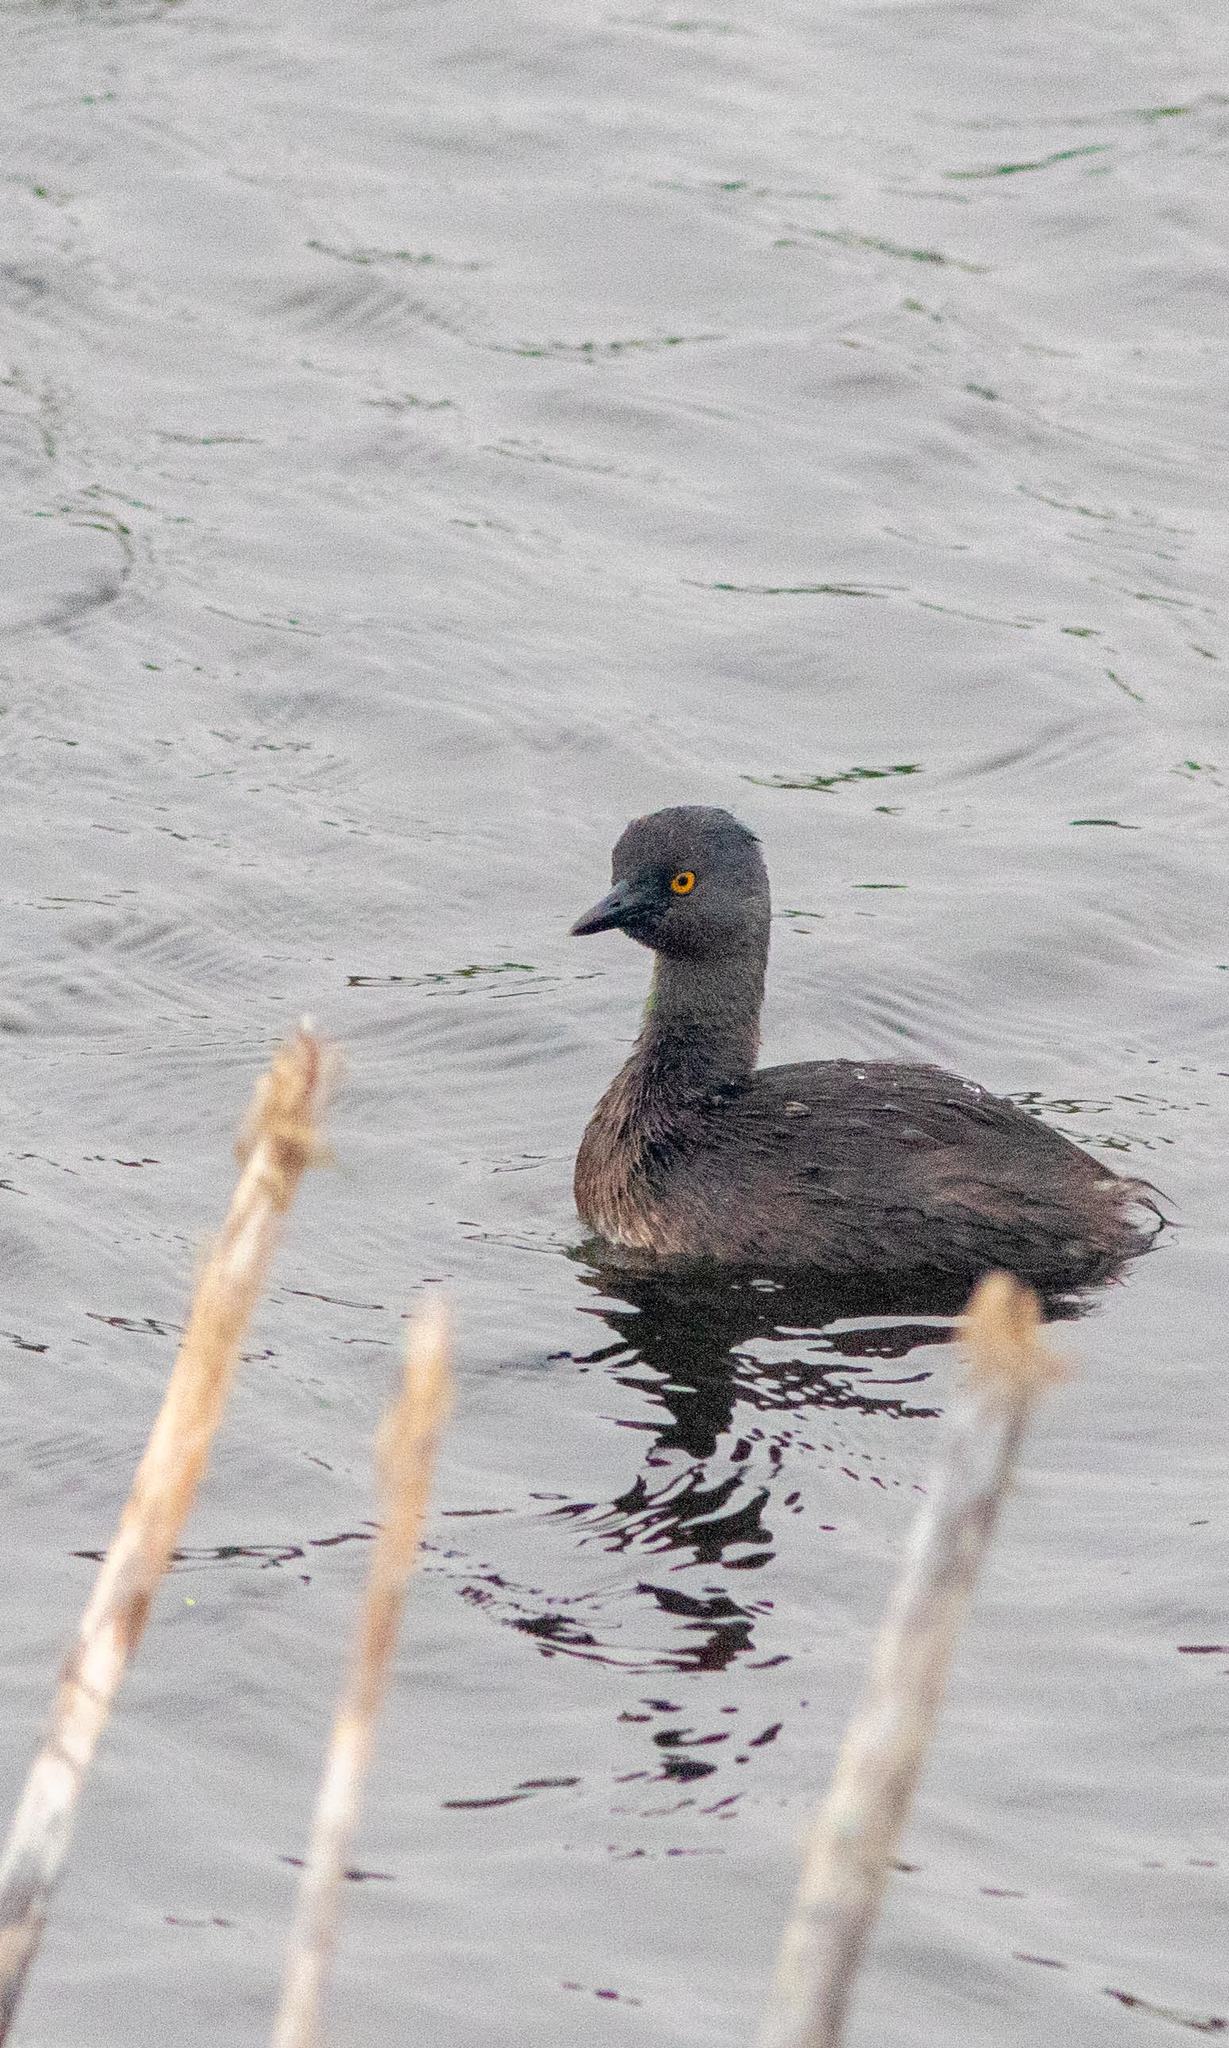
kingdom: Animalia
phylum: Chordata
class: Aves
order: Podicipediformes
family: Podicipedidae
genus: Tachybaptus
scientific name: Tachybaptus dominicus
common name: Least grebe
